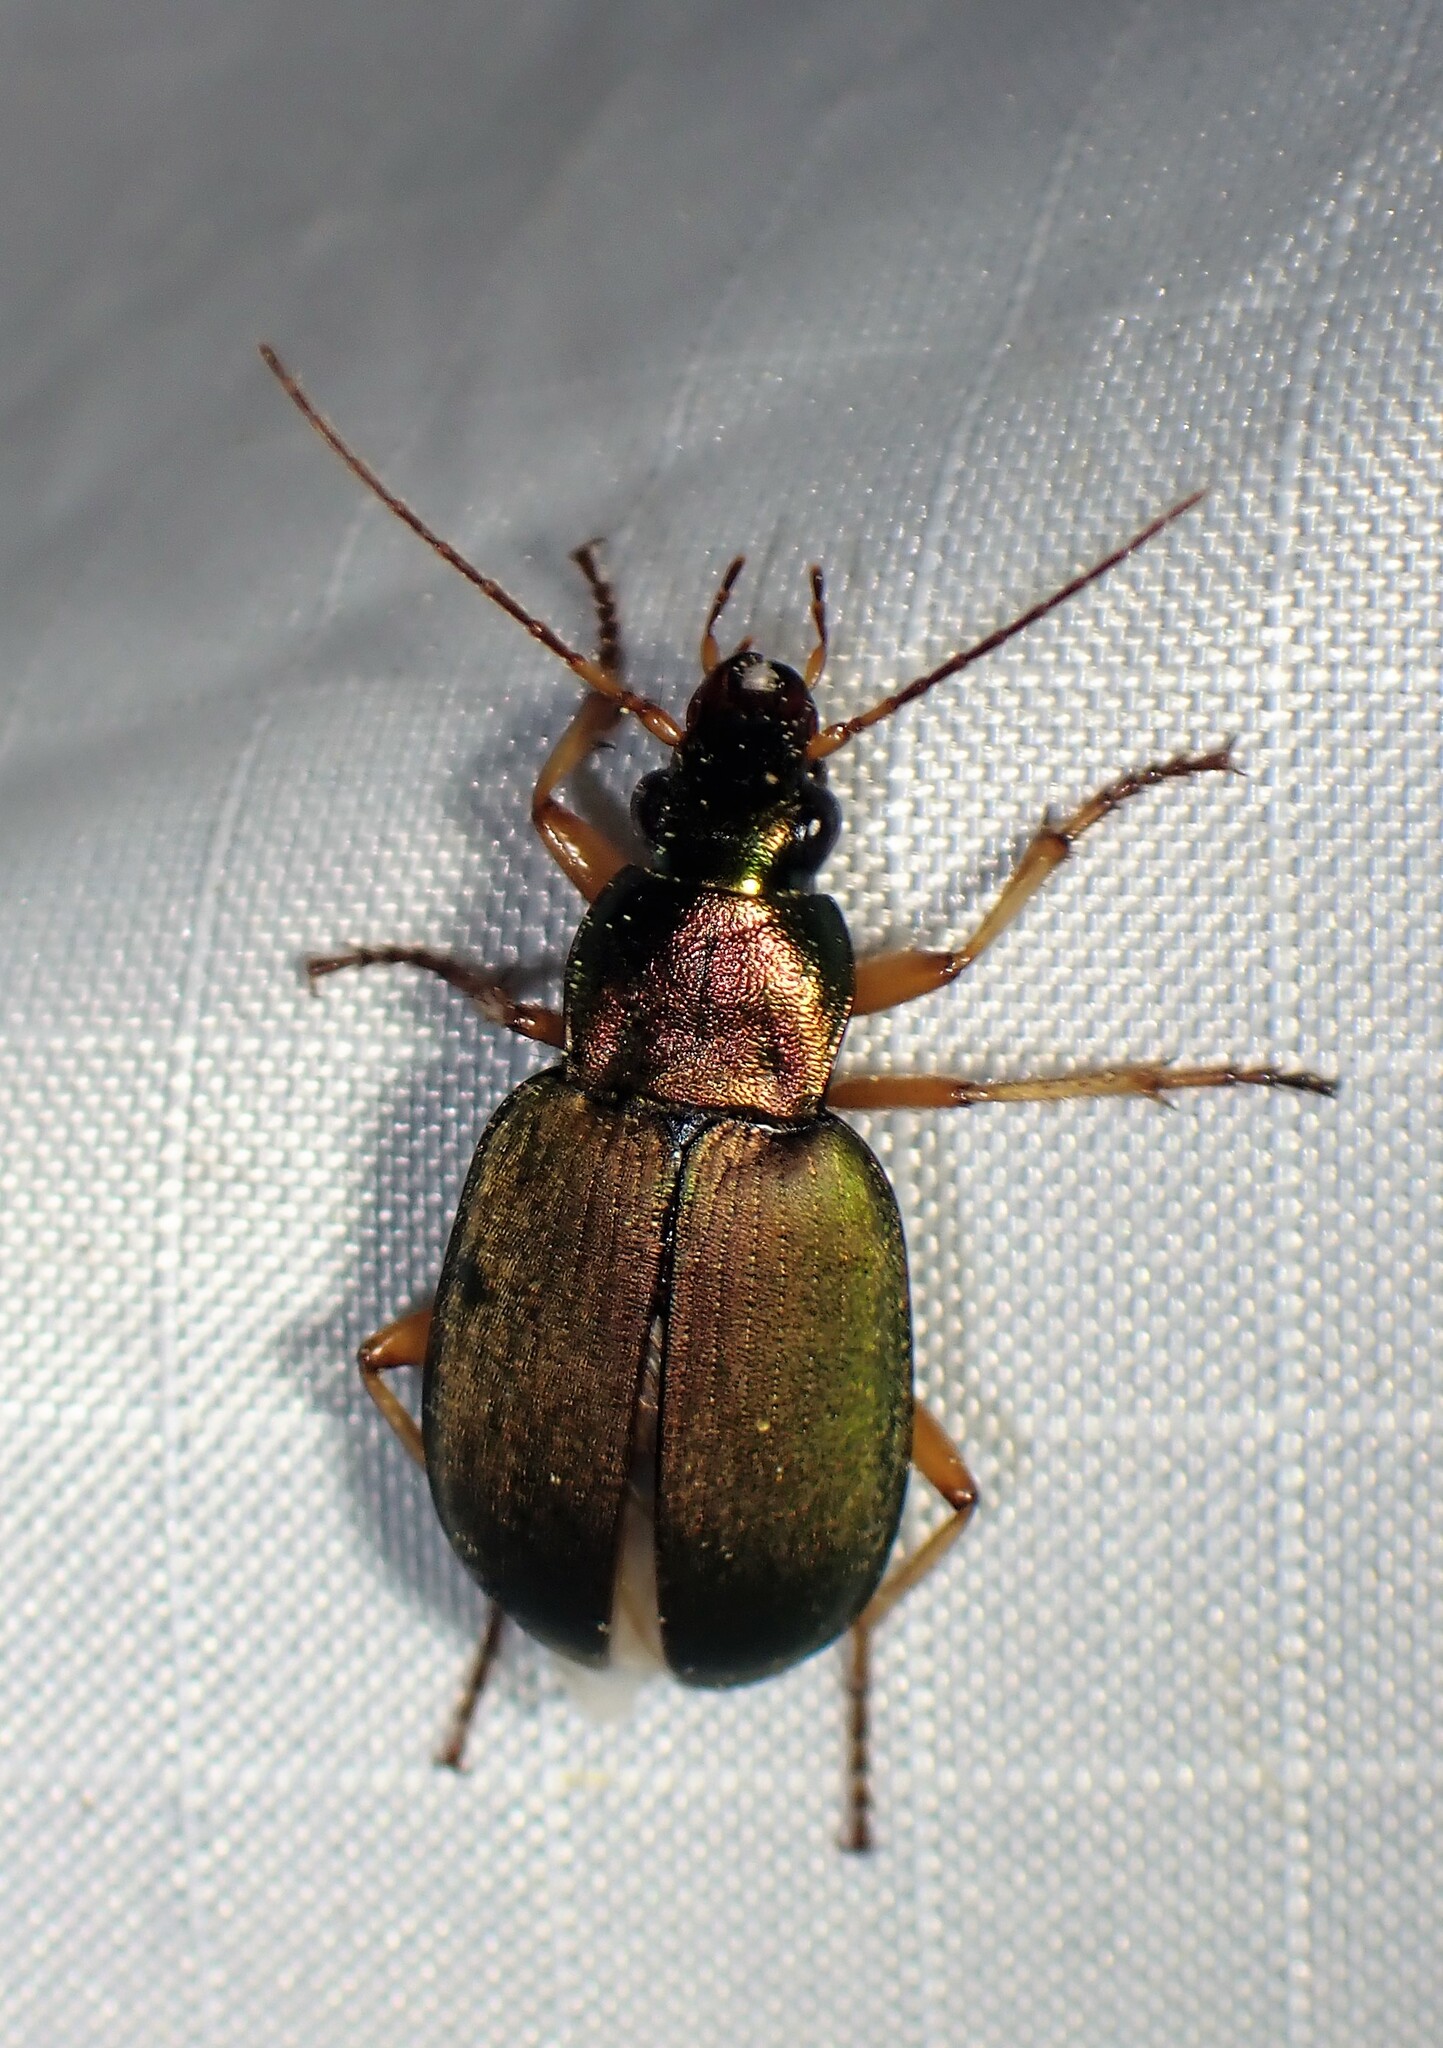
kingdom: Animalia
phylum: Arthropoda
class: Insecta
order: Coleoptera
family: Carabidae
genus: Chlaenius
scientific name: Chlaenius sericeus
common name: Green pubescent ground beetle
